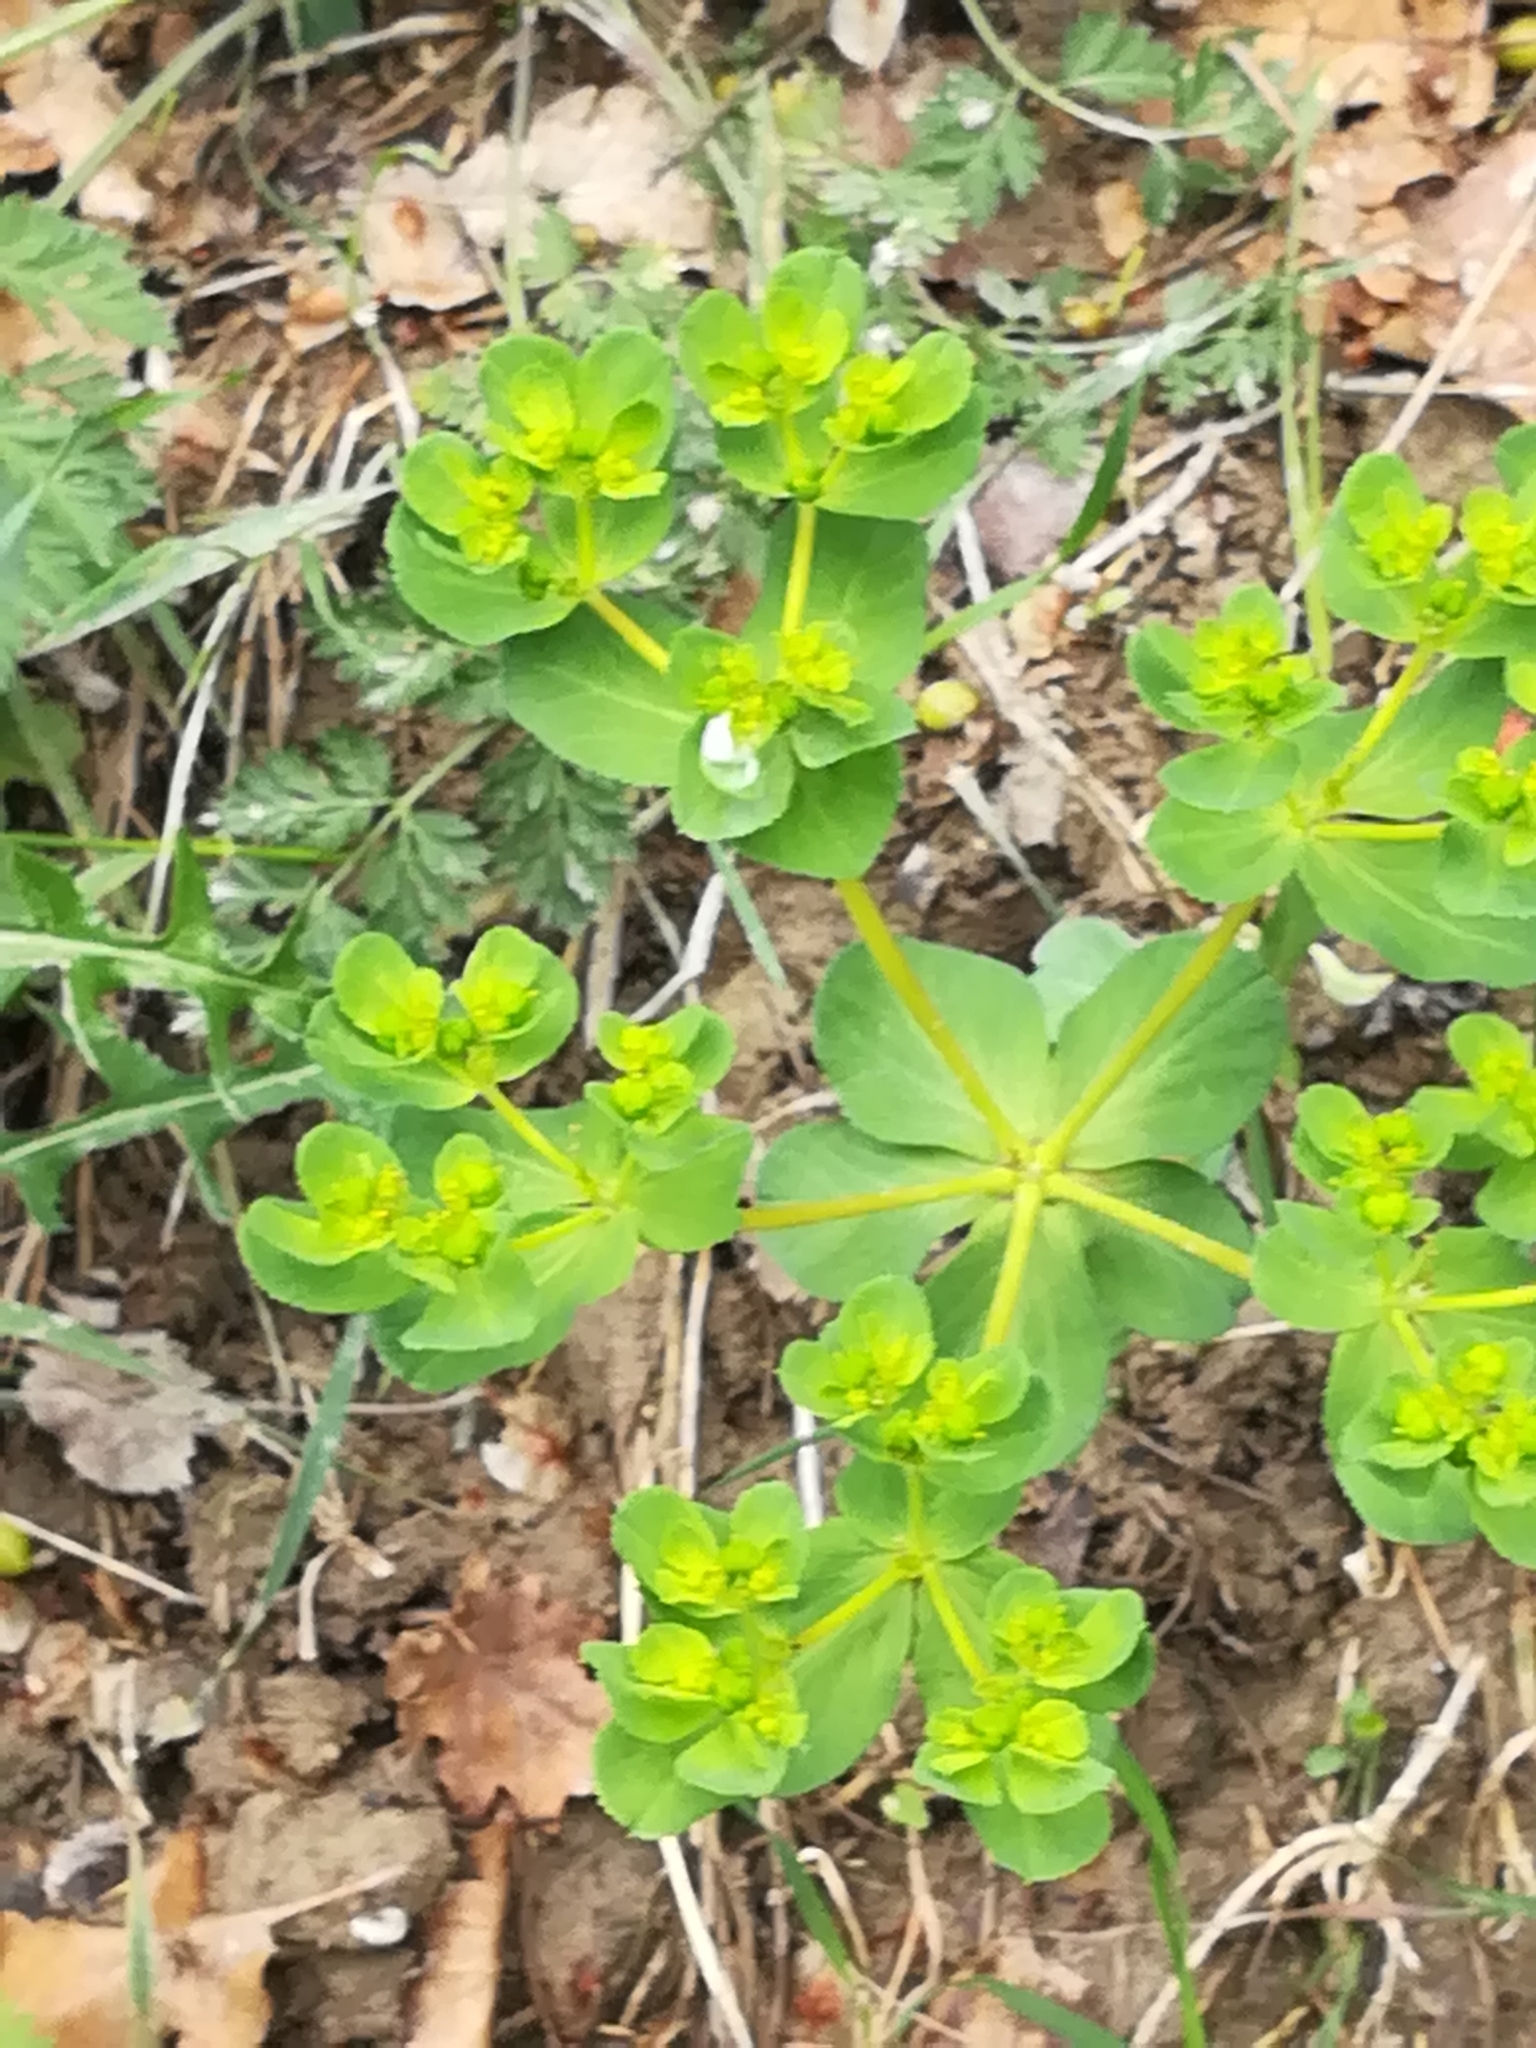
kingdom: Plantae
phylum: Tracheophyta
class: Magnoliopsida
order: Malpighiales
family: Euphorbiaceae
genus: Euphorbia
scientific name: Euphorbia helioscopia
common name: Sun spurge
